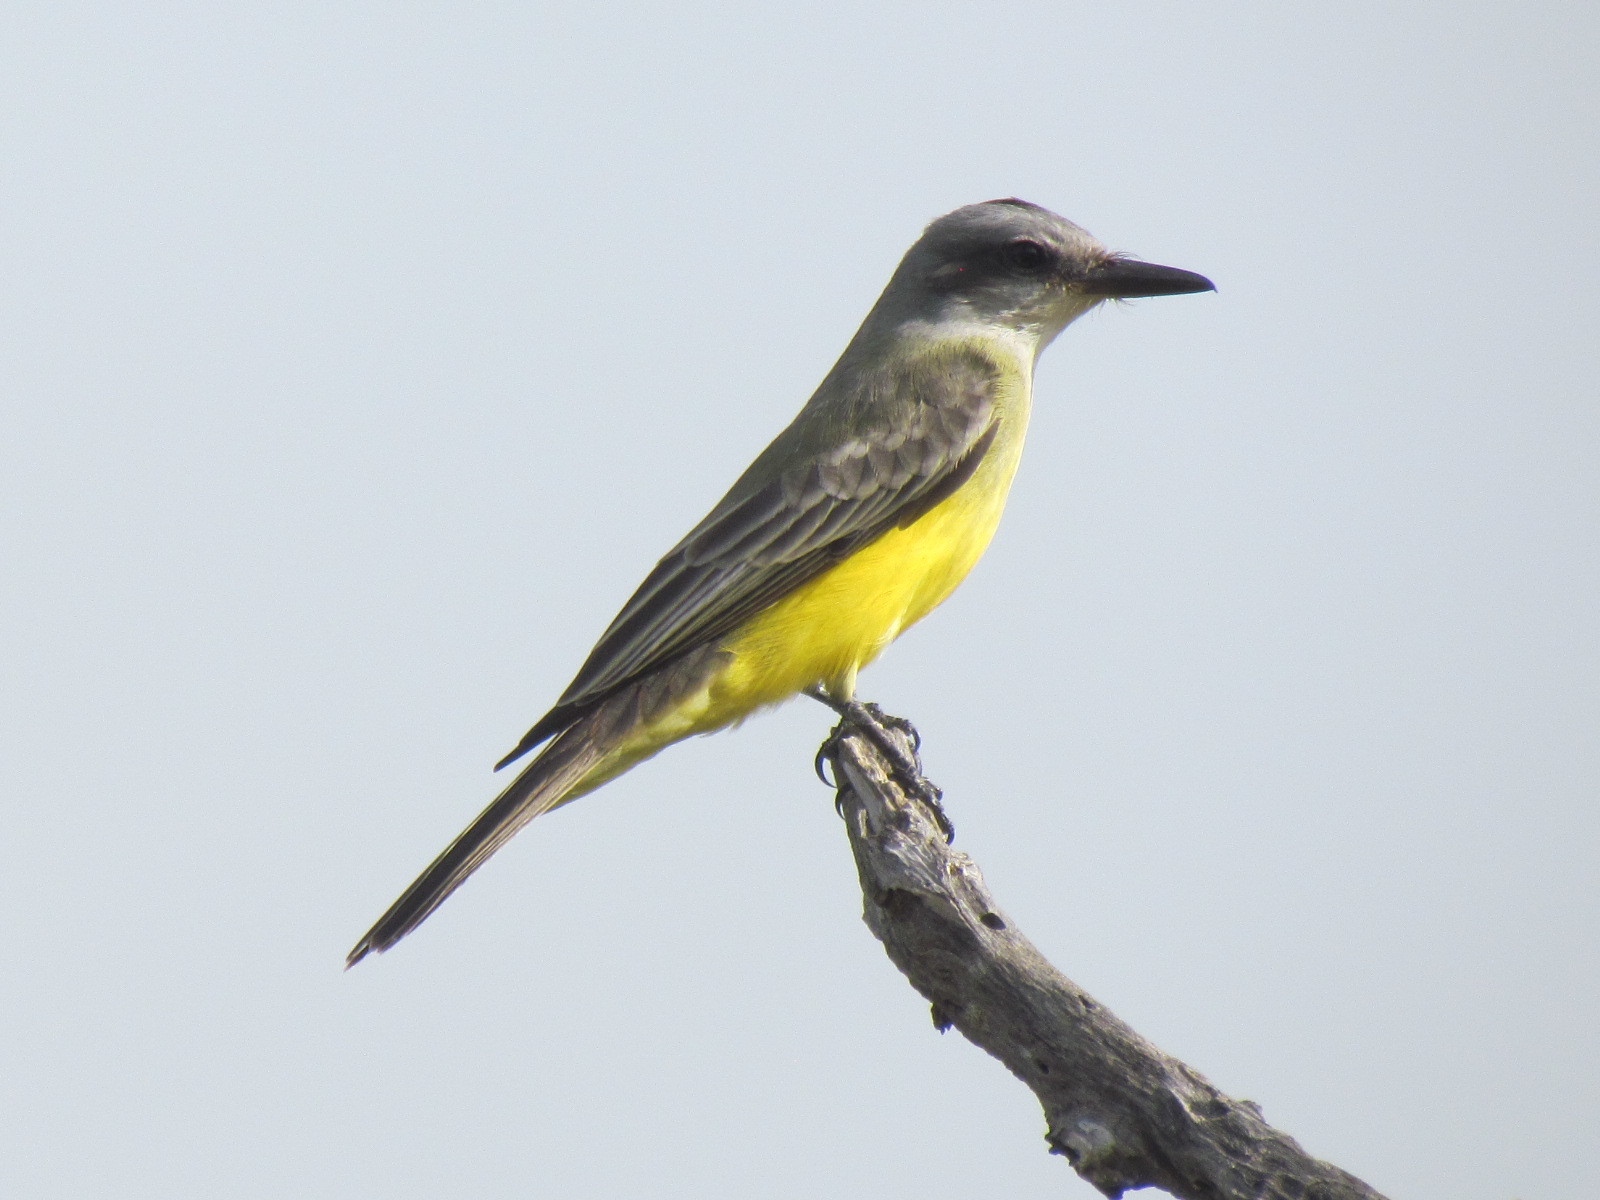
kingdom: Animalia
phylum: Chordata
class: Aves
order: Passeriformes
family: Tyrannidae
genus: Tyrannus
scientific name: Tyrannus melancholicus
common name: Tropical kingbird
